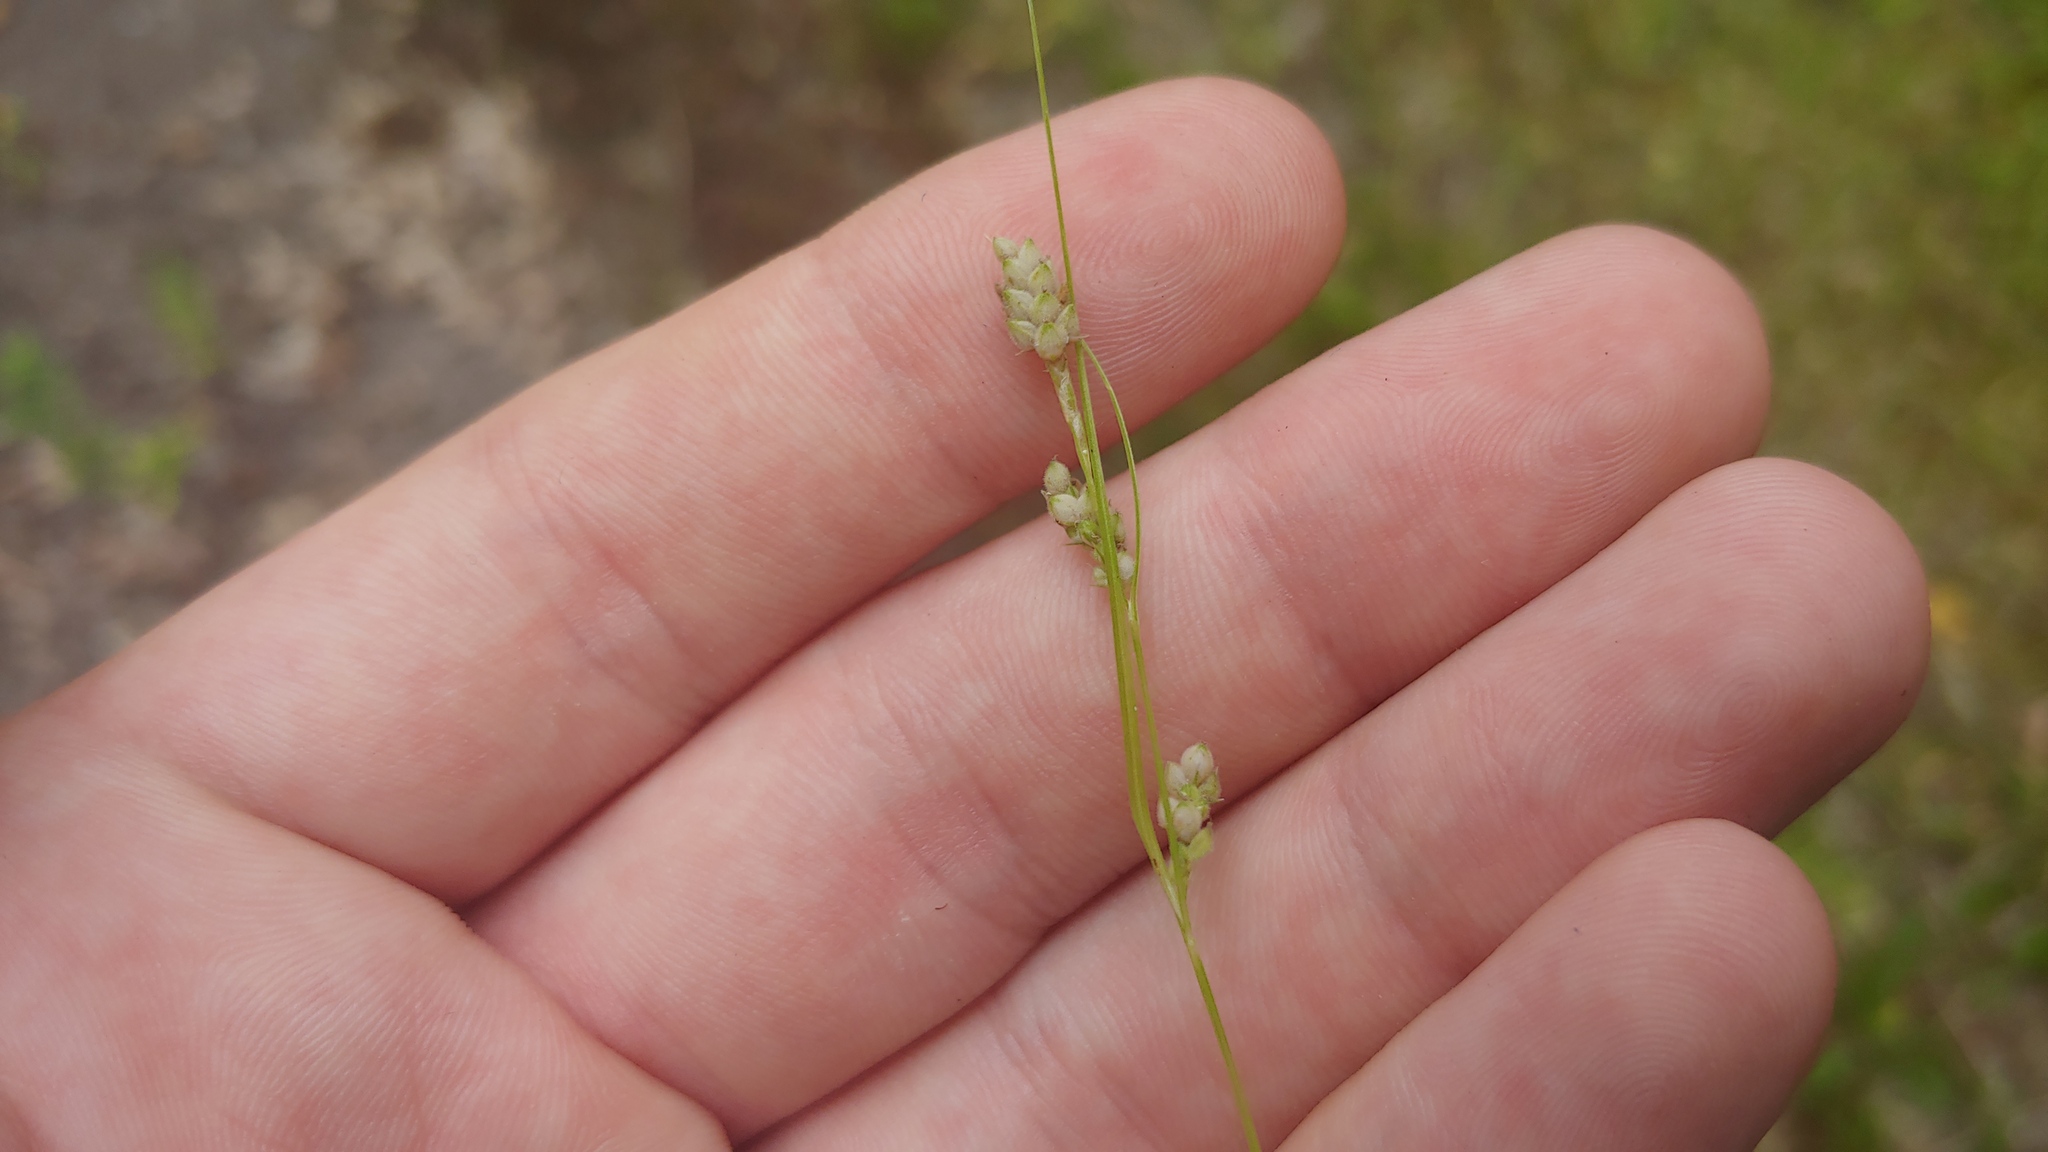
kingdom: Plantae
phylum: Tracheophyta
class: Liliopsida
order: Poales
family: Cyperaceae
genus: Carex
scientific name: Carex swanii
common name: Downy green sedge
